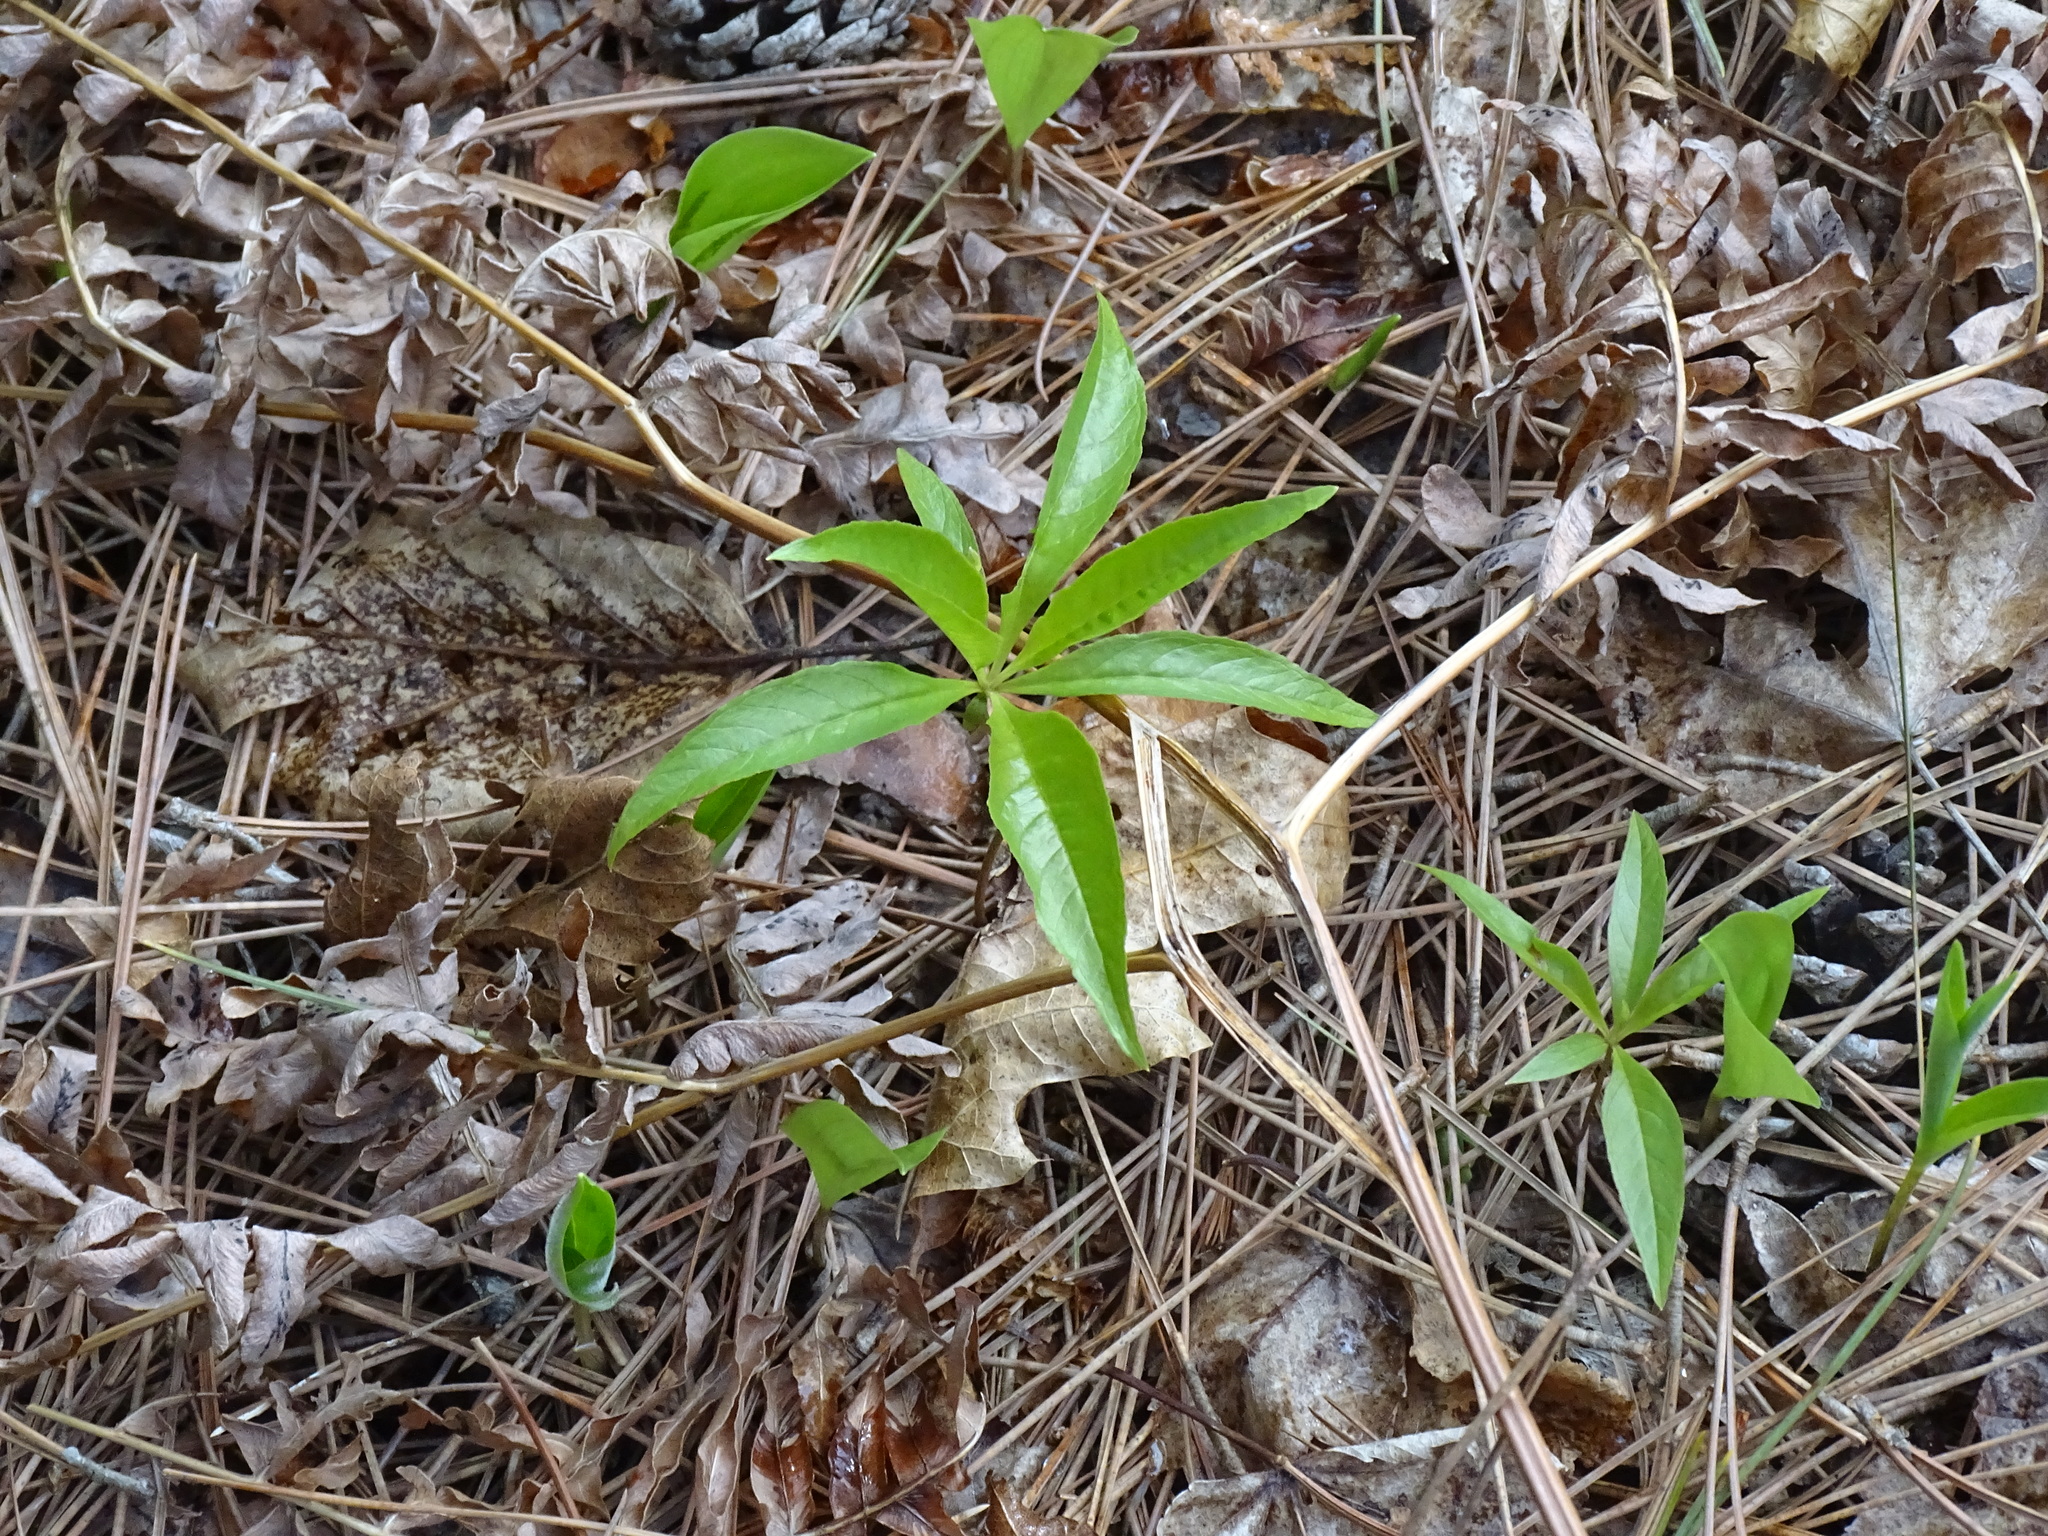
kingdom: Plantae
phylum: Tracheophyta
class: Magnoliopsida
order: Ericales
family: Primulaceae
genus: Lysimachia
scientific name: Lysimachia borealis
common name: American starflower
